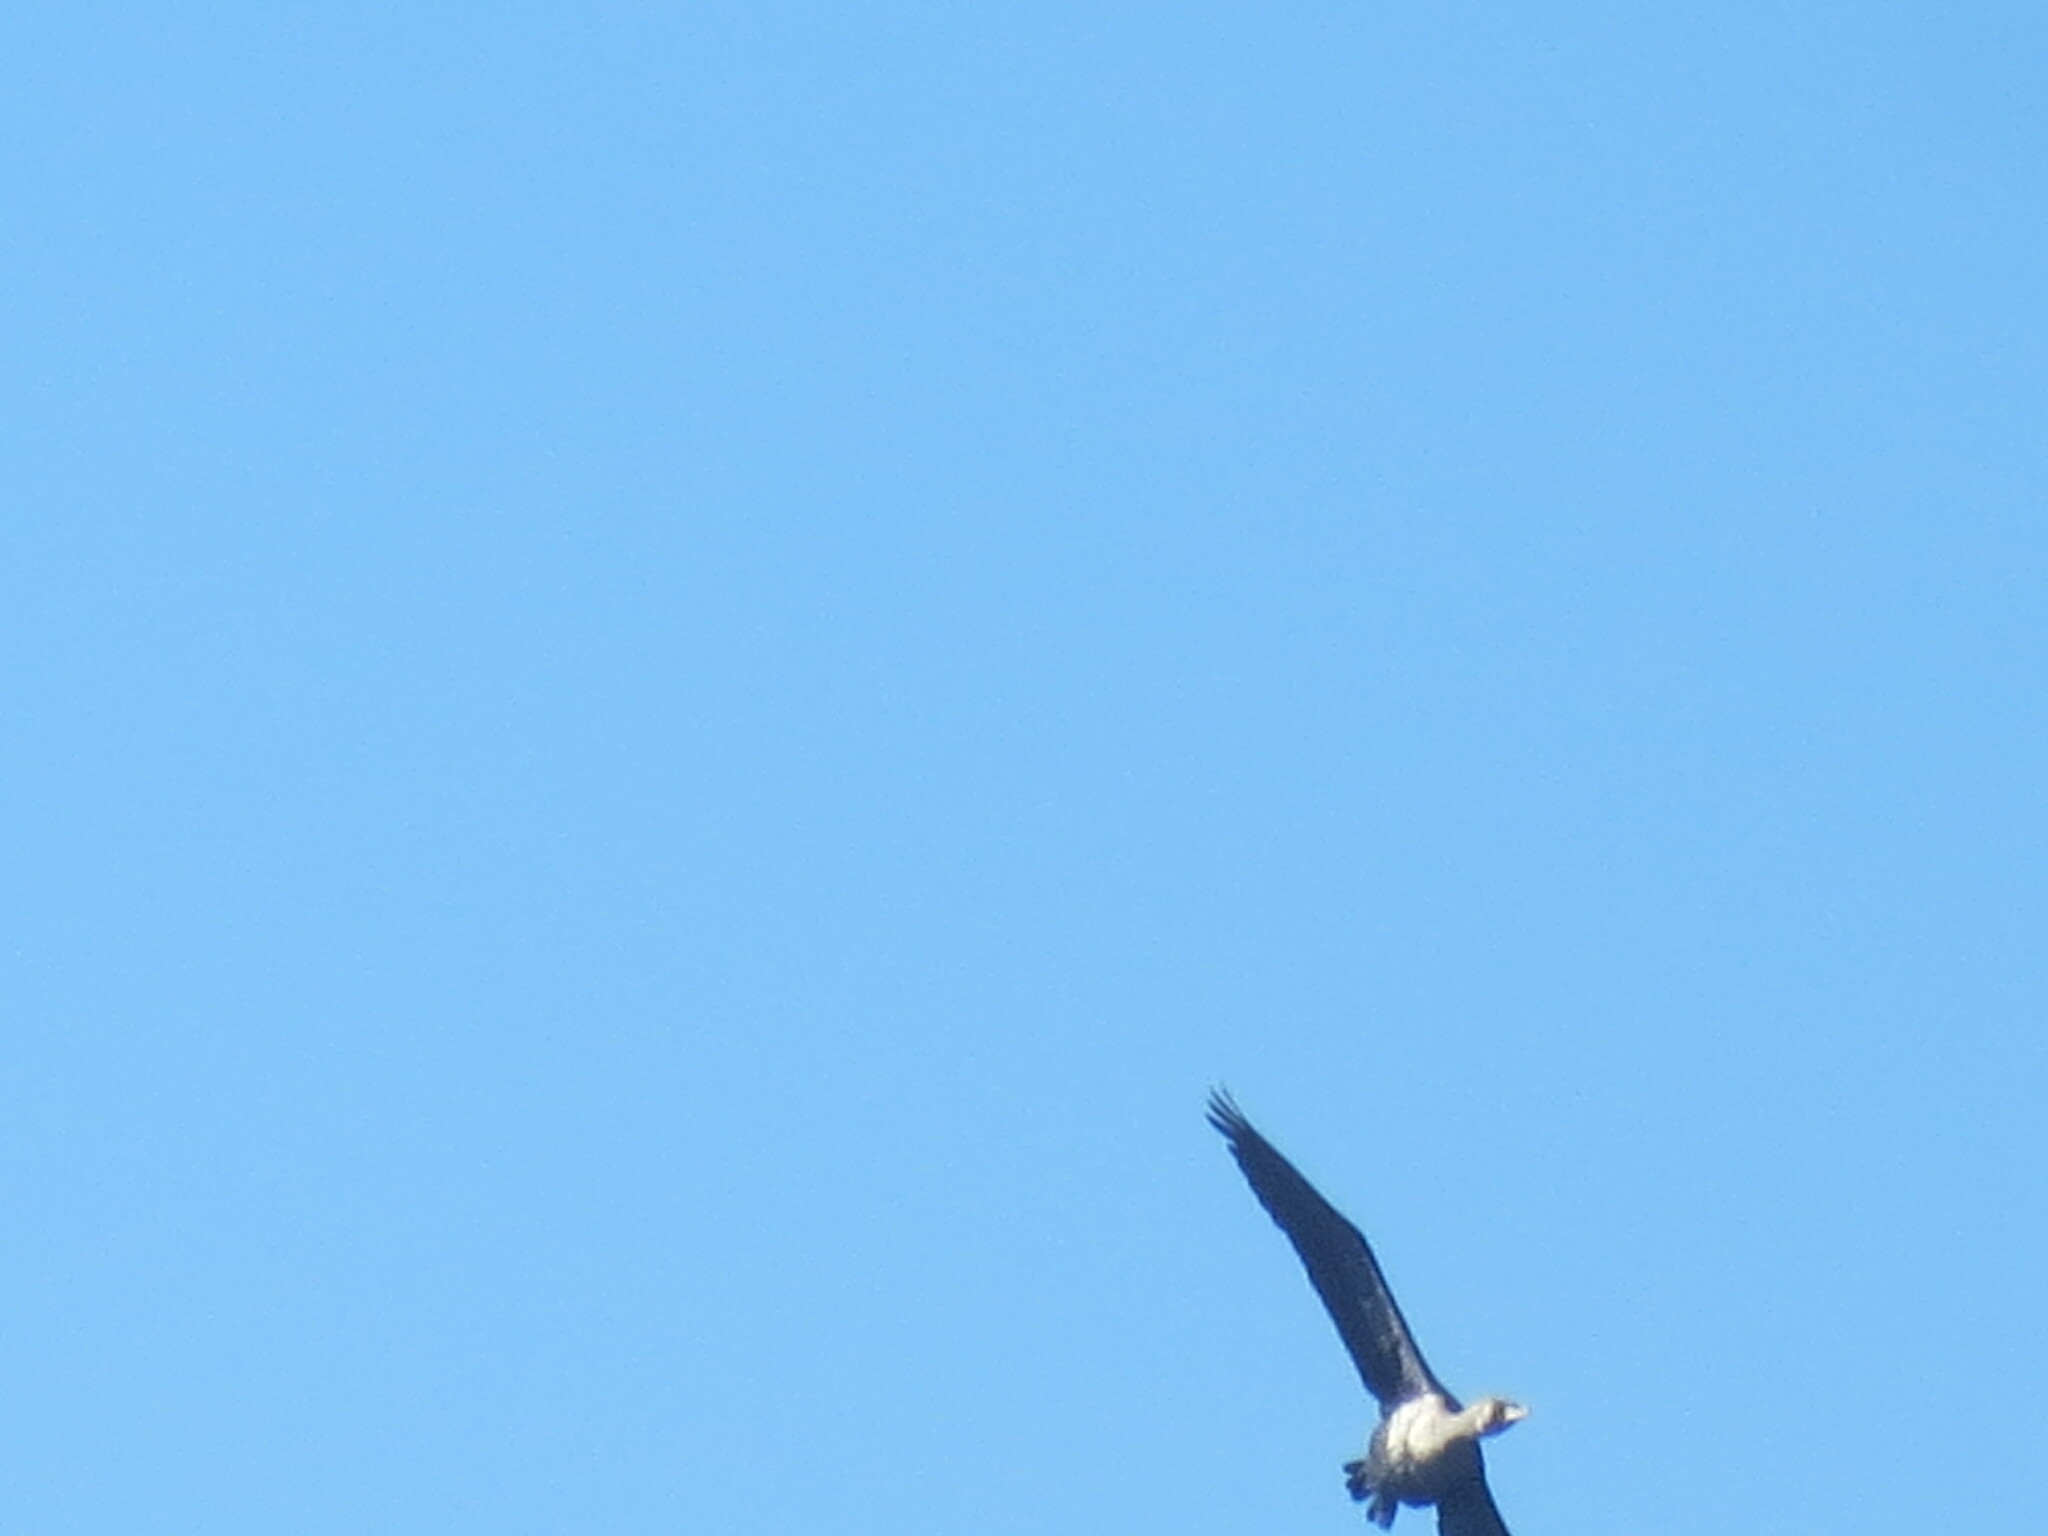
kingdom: Animalia
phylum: Chordata
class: Aves
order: Suliformes
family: Phalacrocoracidae
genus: Phalacrocorax
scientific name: Phalacrocorax auritus
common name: Double-crested cormorant
